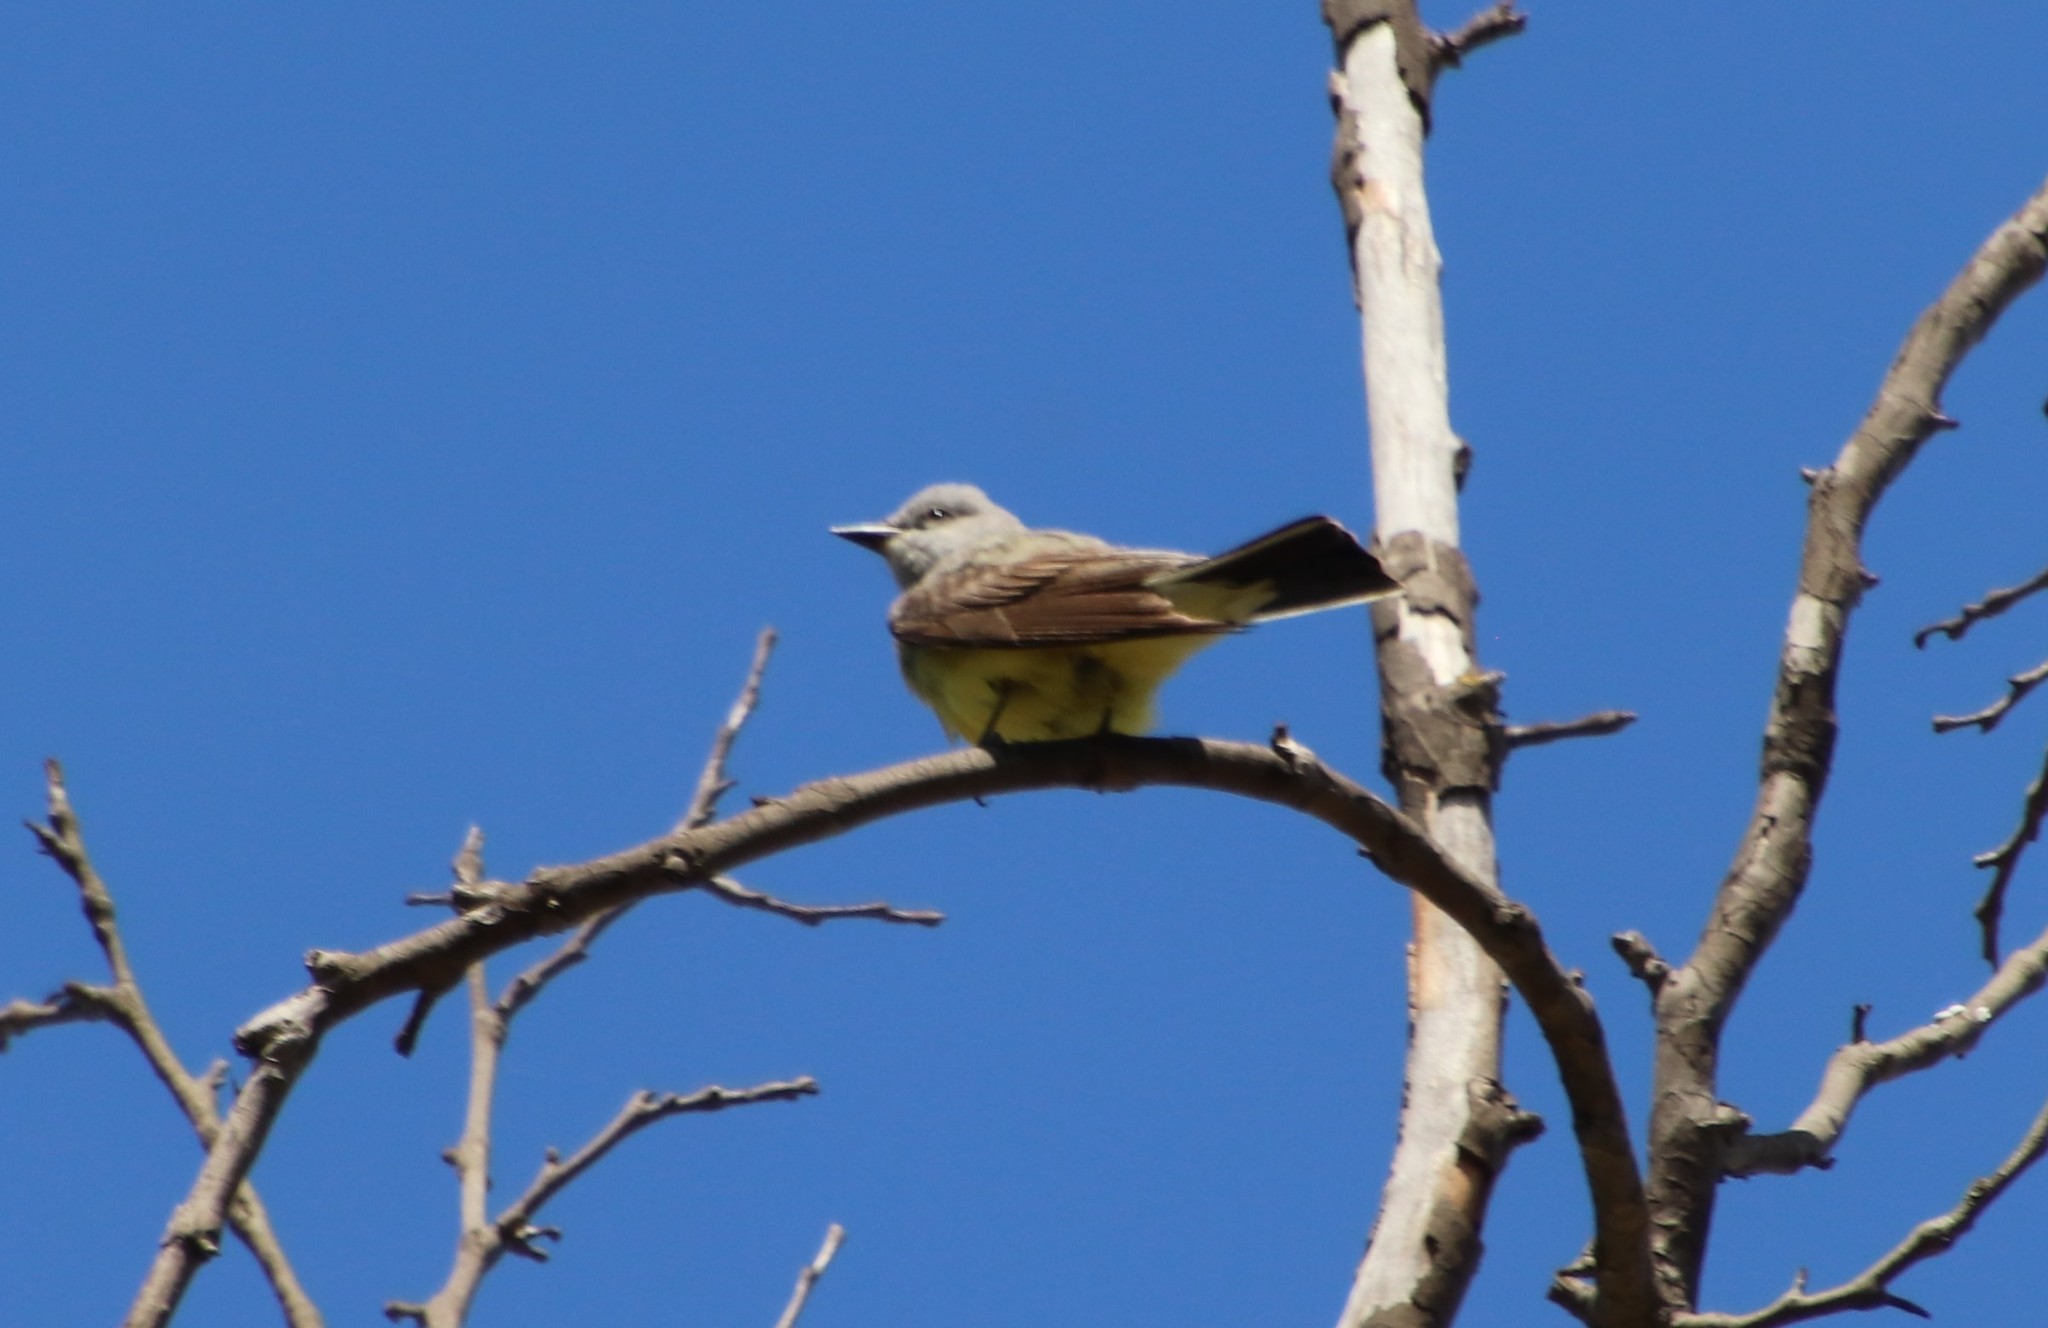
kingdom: Animalia
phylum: Chordata
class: Aves
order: Passeriformes
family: Tyrannidae
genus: Tyrannus
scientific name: Tyrannus verticalis
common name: Western kingbird
